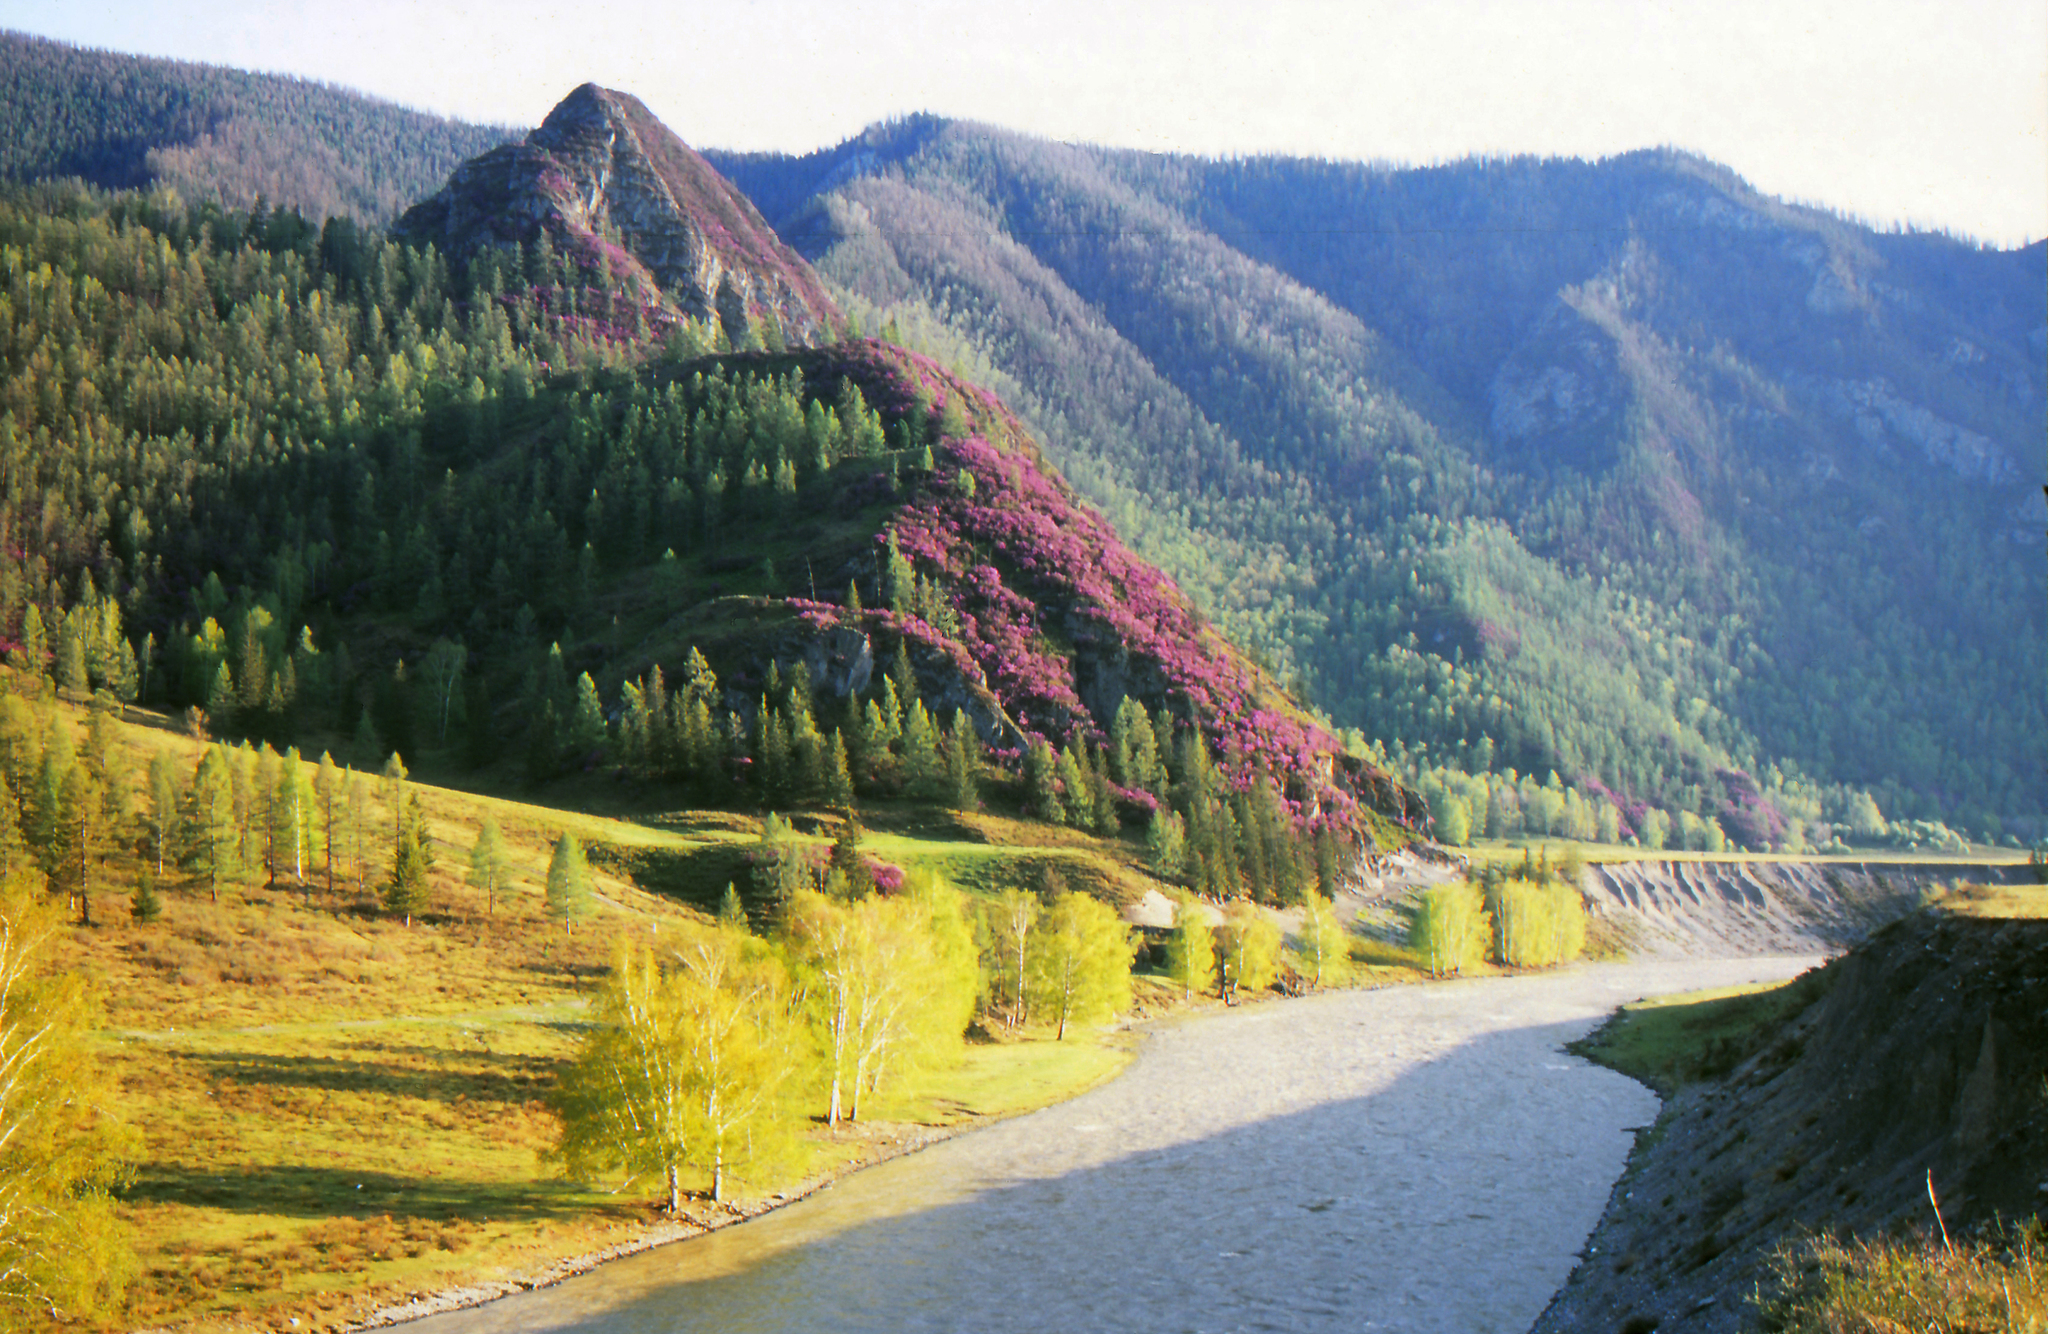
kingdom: Plantae
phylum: Tracheophyta
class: Magnoliopsida
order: Ericales
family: Ericaceae
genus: Rhododendron
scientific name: Rhododendron dauricum
